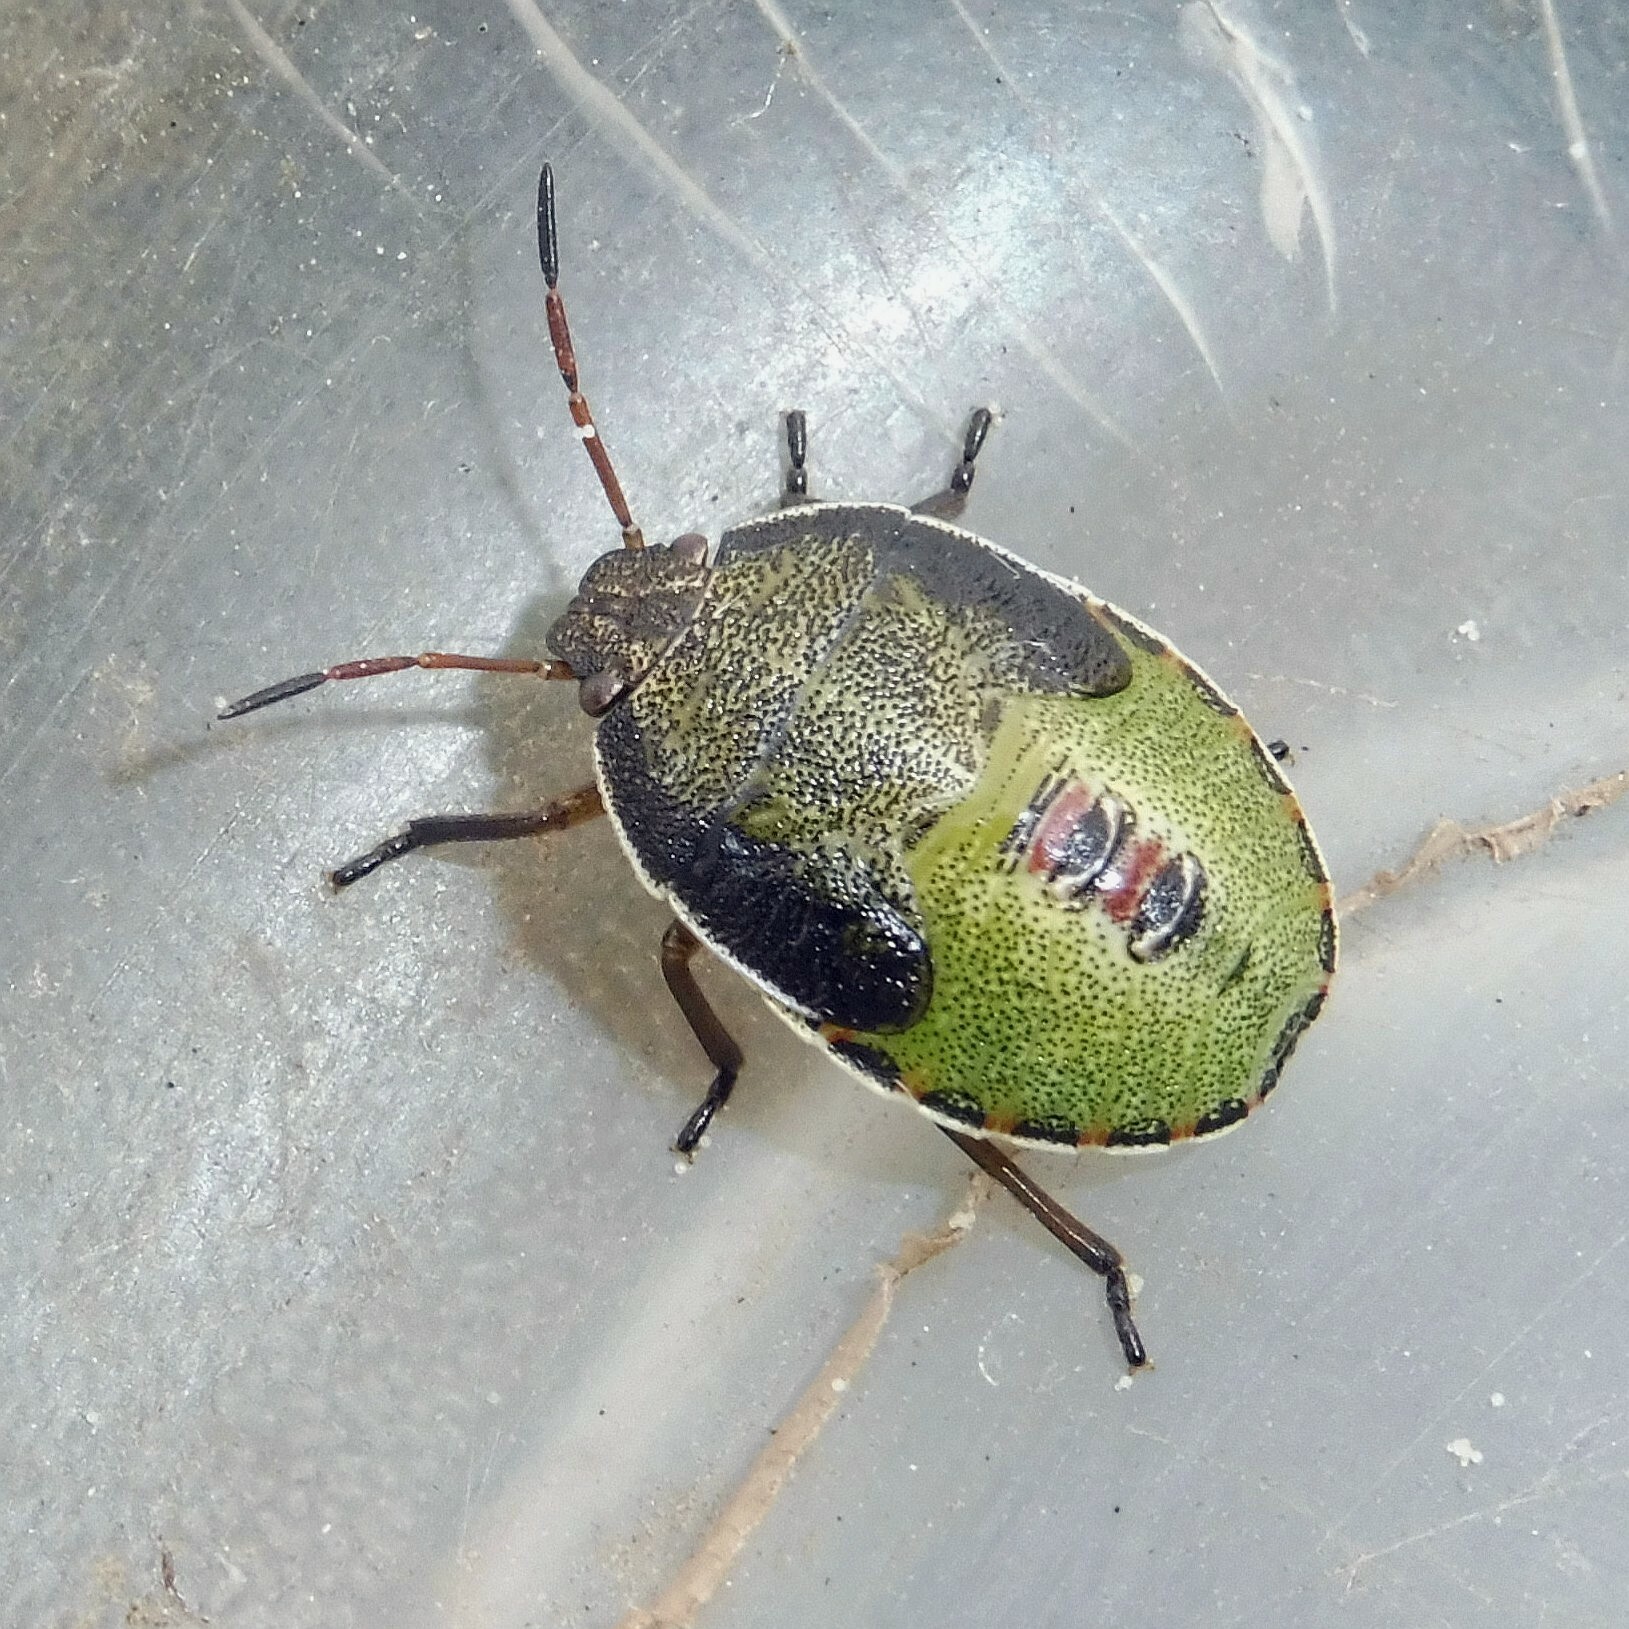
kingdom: Animalia
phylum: Arthropoda
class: Insecta
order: Hemiptera
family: Pentatomidae
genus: Piezodorus
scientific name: Piezodorus lituratus
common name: Stink bug
